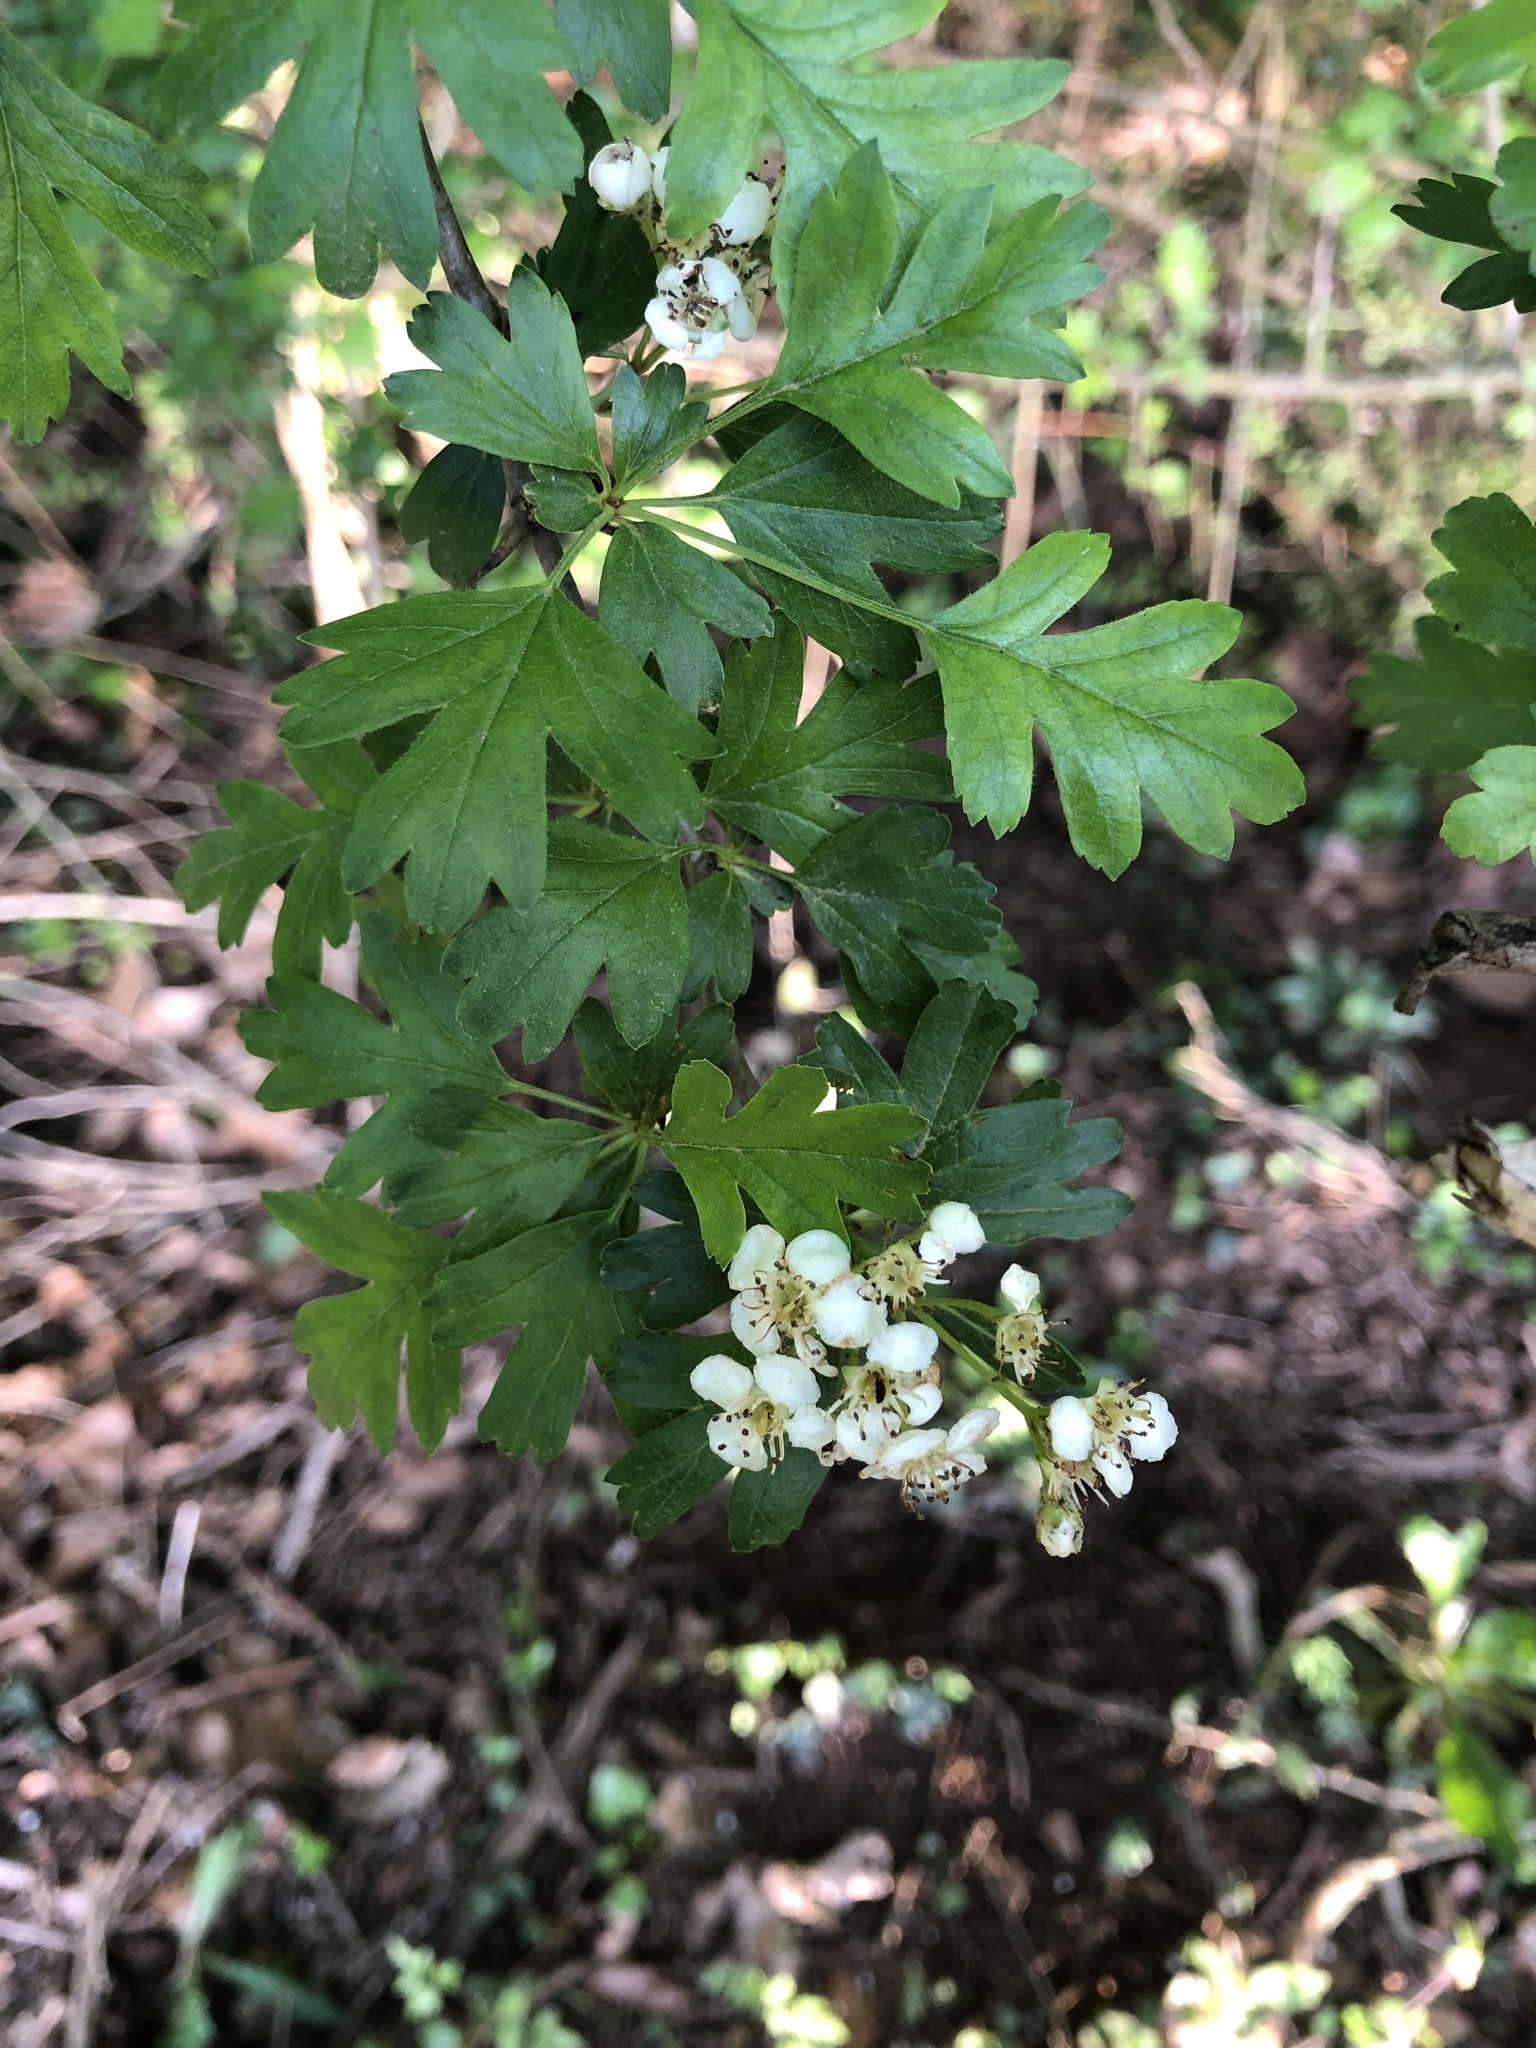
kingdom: Plantae
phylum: Tracheophyta
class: Magnoliopsida
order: Rosales
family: Rosaceae
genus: Crataegus
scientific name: Crataegus monogyna
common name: Hawthorn
